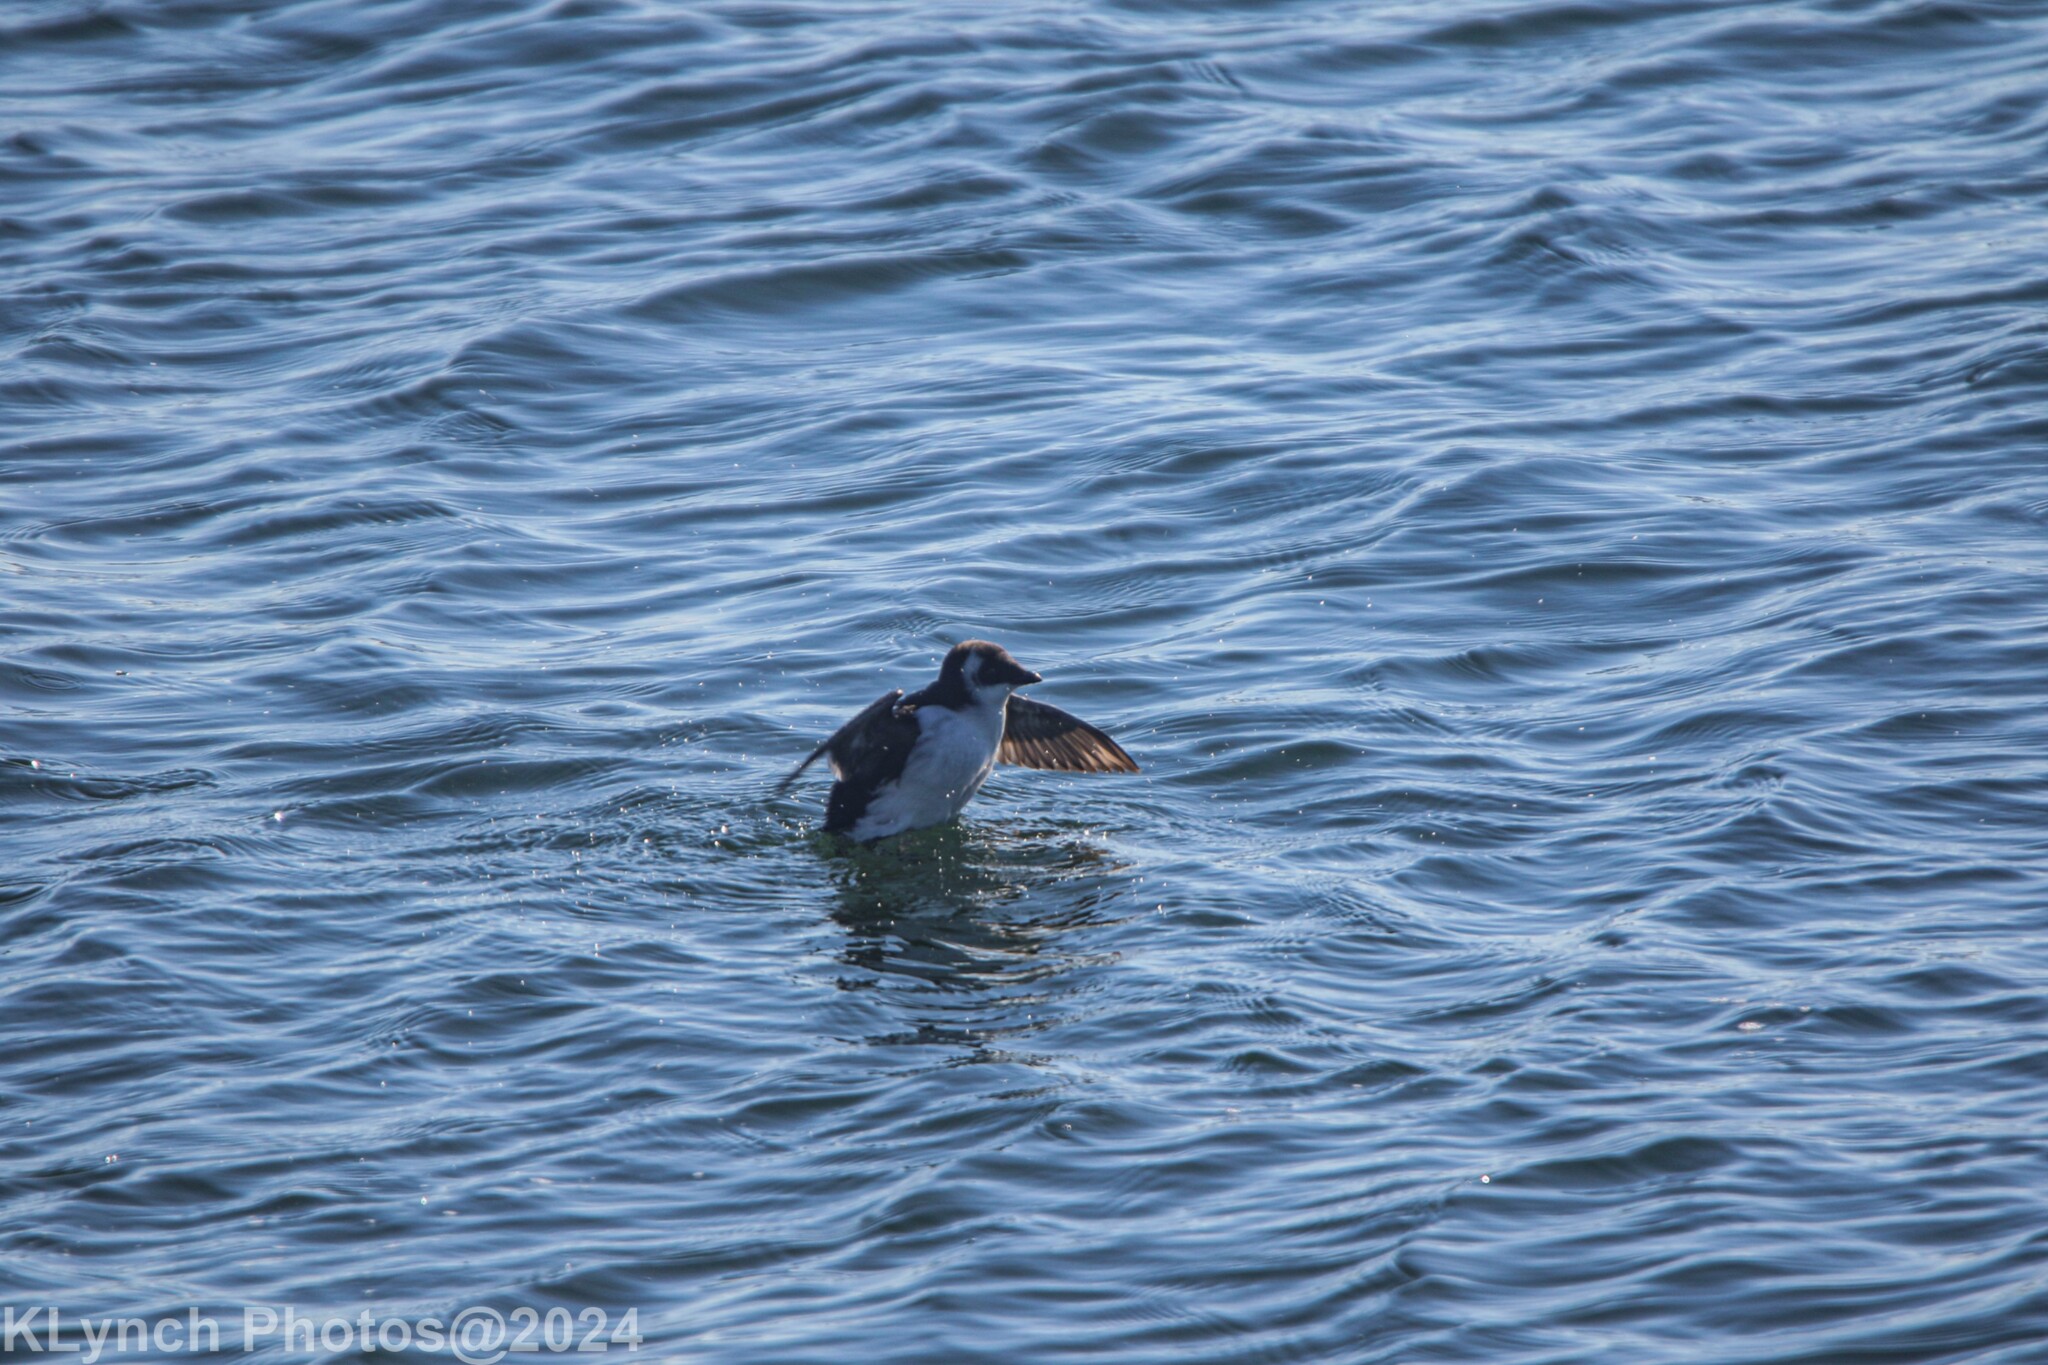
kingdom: Animalia
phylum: Chordata
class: Aves
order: Charadriiformes
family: Alcidae
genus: Alle
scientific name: Alle alle
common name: Little auk
